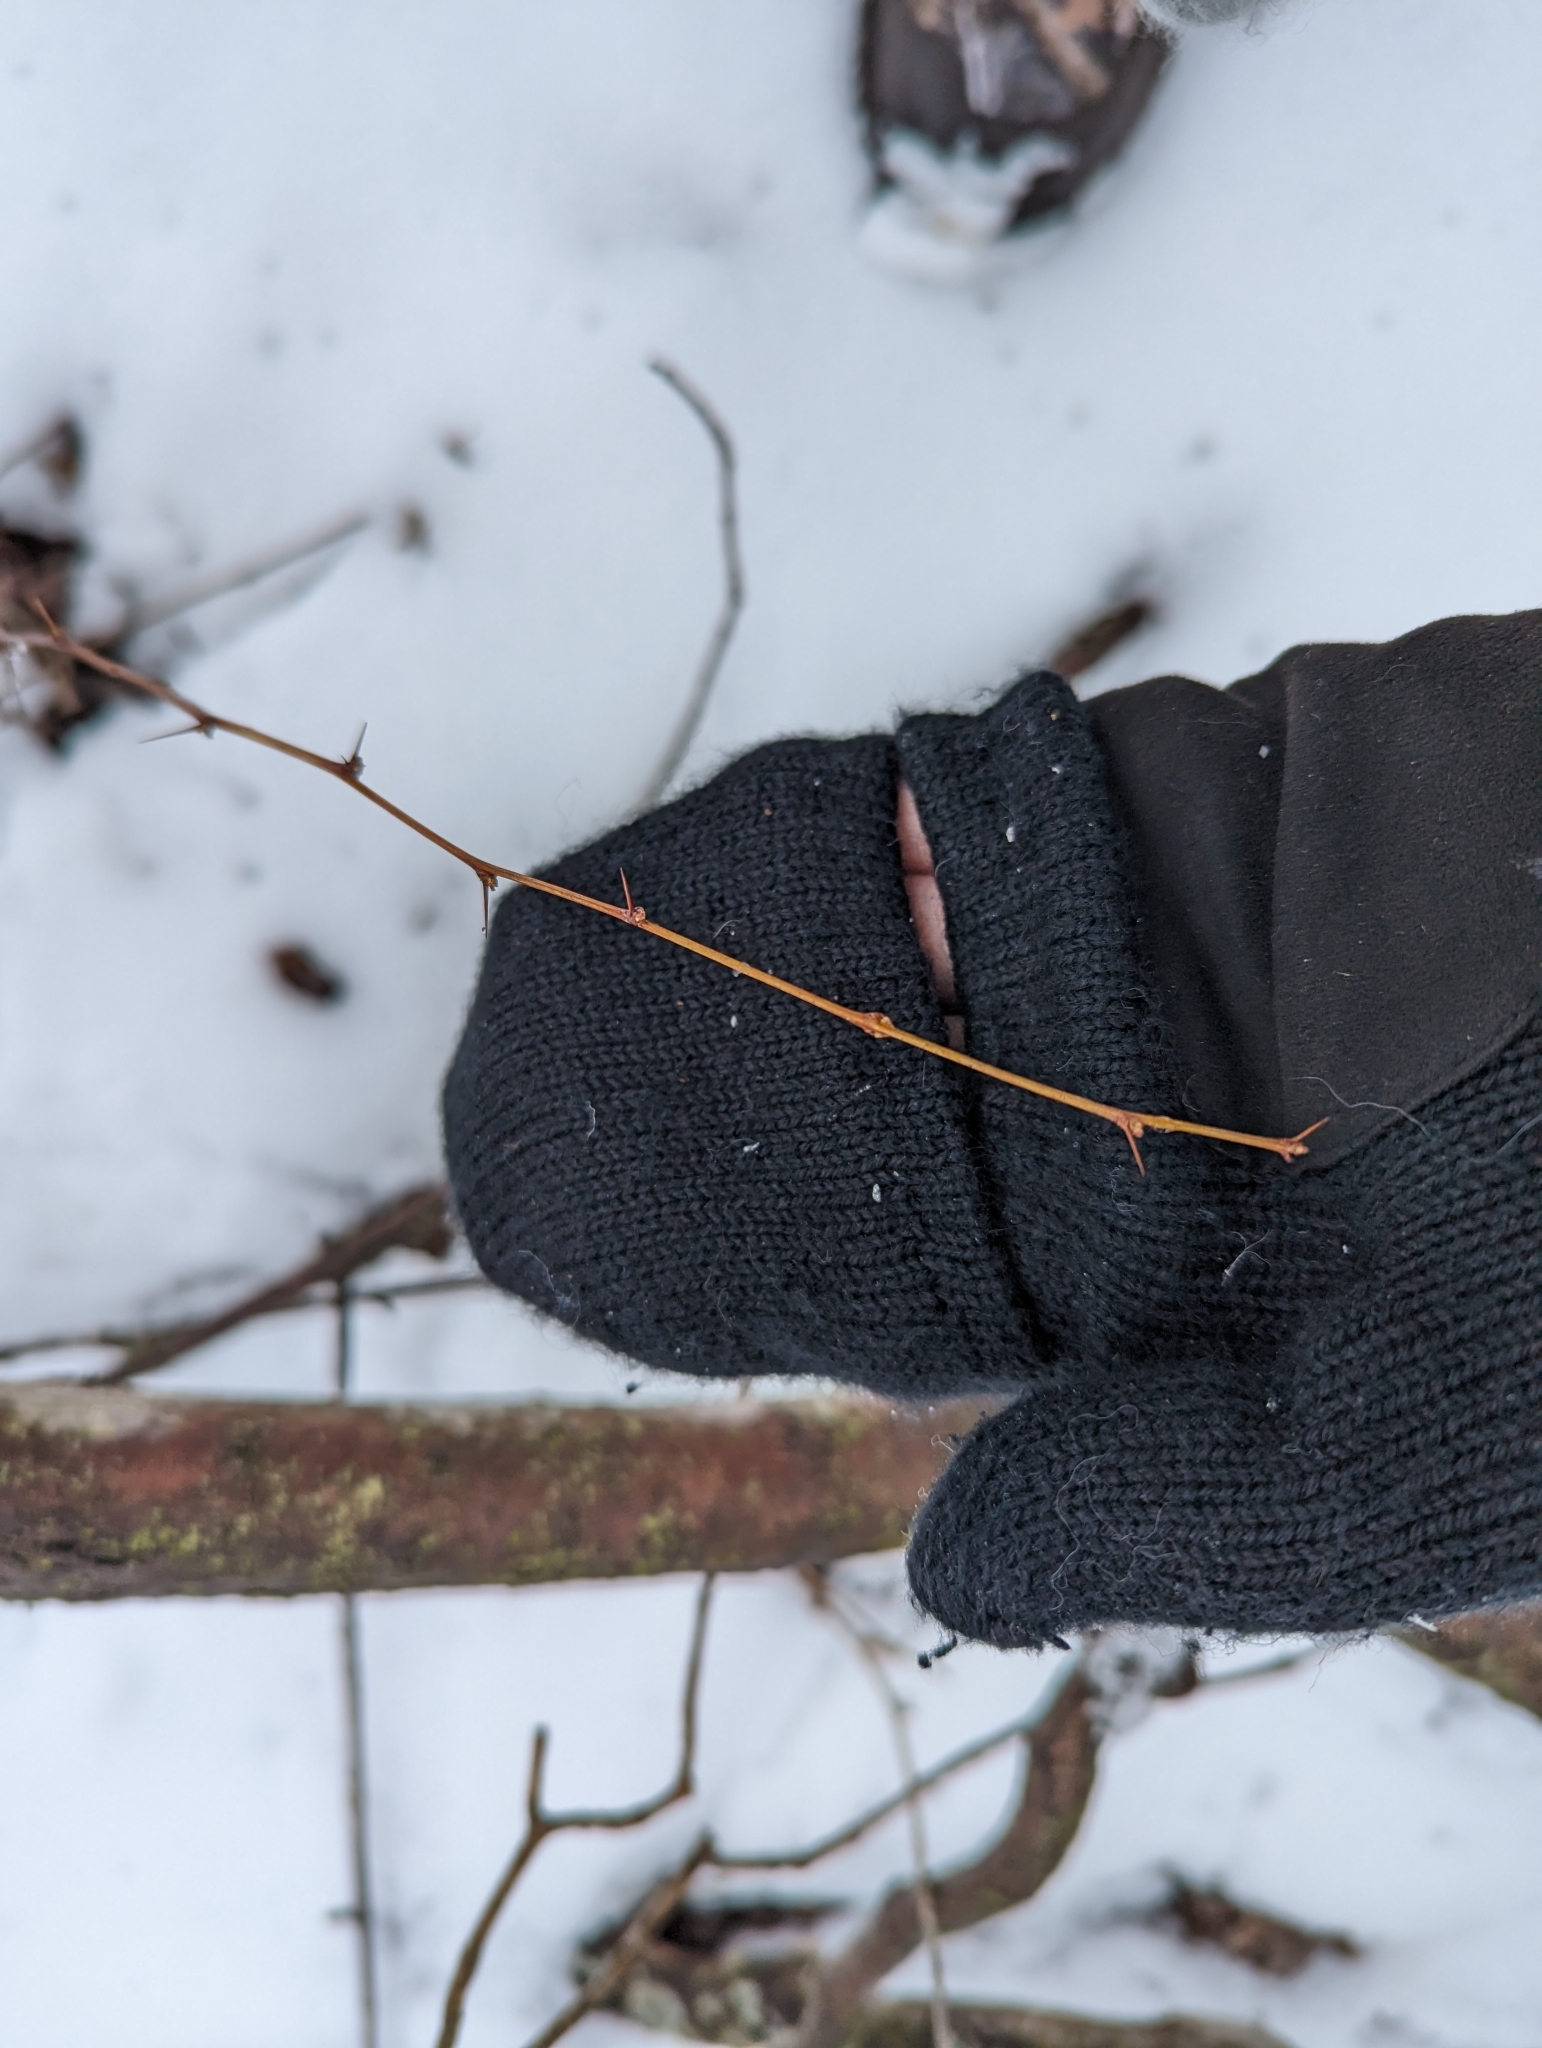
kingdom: Plantae
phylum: Tracheophyta
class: Magnoliopsida
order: Ranunculales
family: Berberidaceae
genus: Berberis
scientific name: Berberis thunbergii
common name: Japanese barberry
